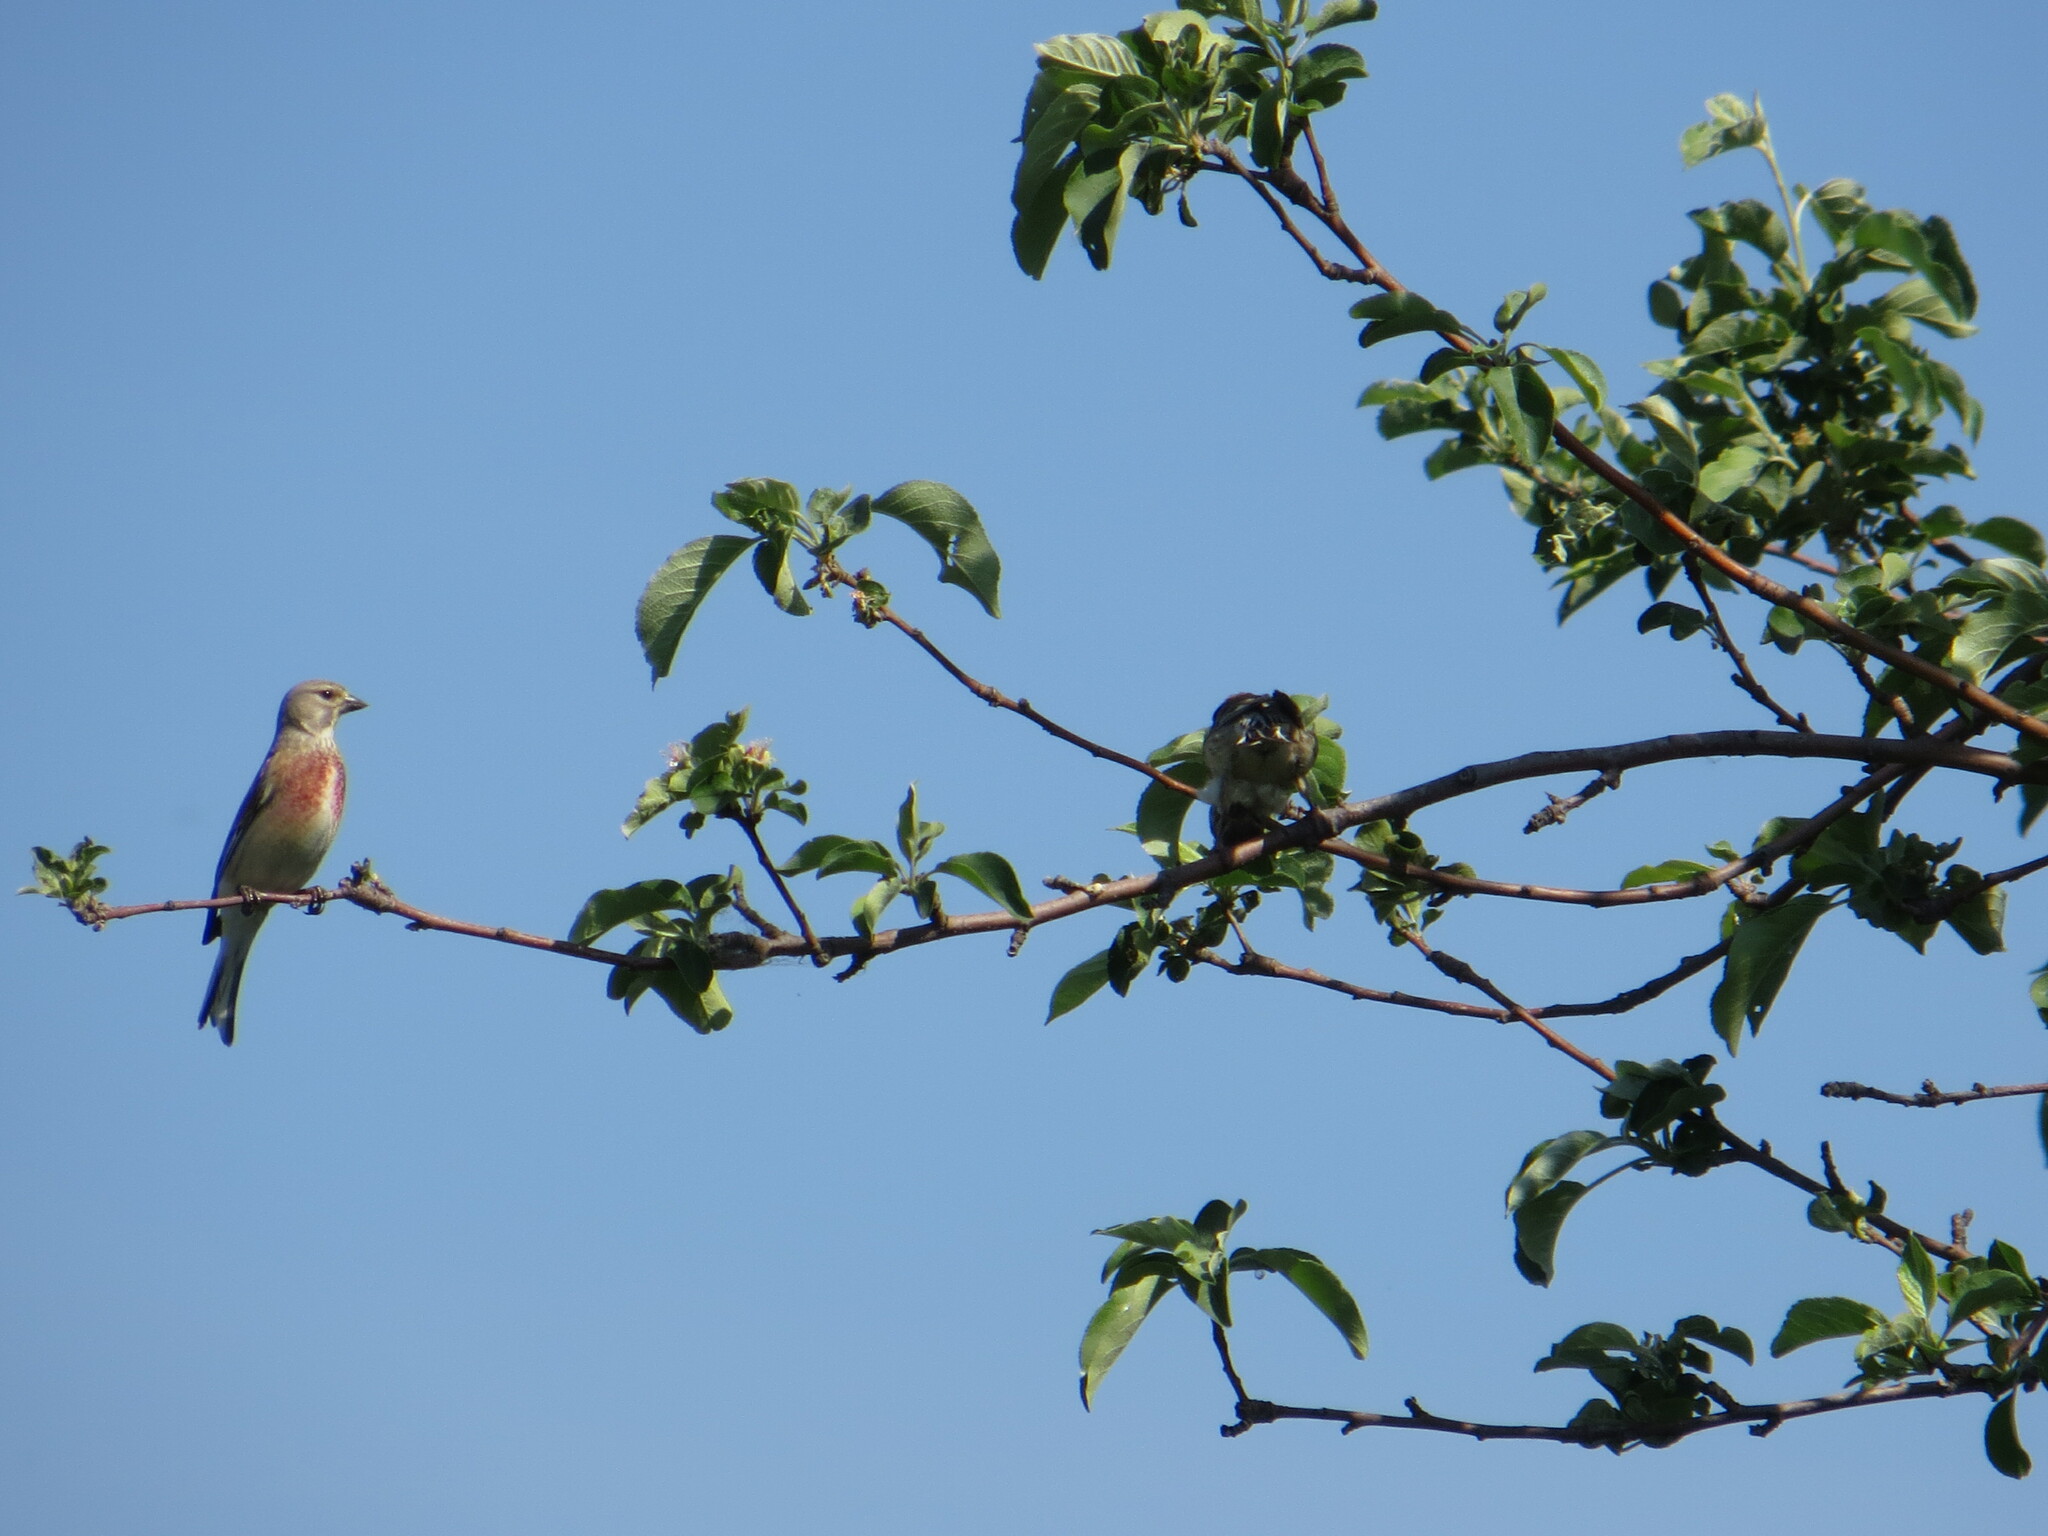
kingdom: Animalia
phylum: Chordata
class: Aves
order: Passeriformes
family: Fringillidae
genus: Linaria
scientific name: Linaria cannabina
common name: Common linnet
